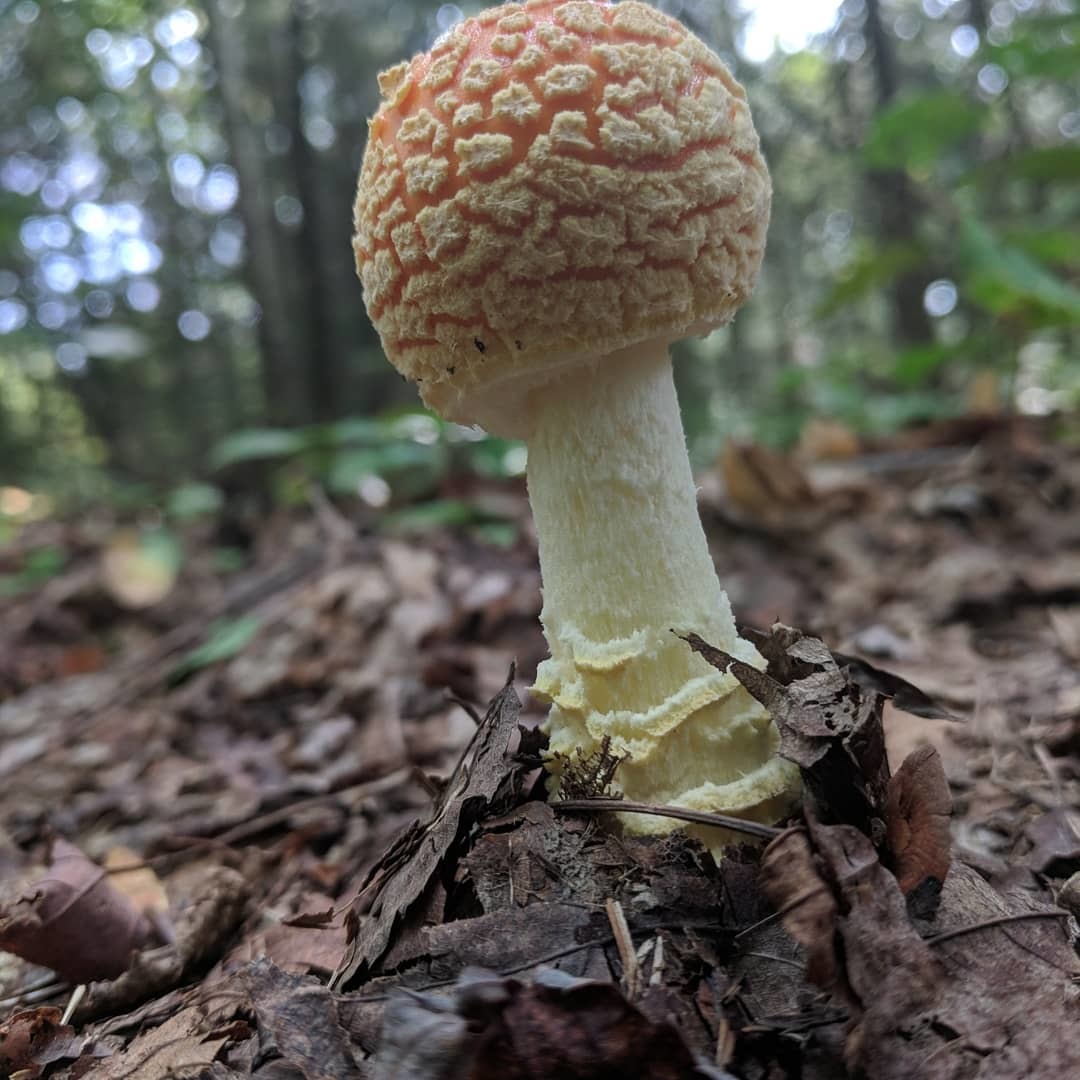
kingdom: Fungi
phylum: Basidiomycota
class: Agaricomycetes
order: Agaricales
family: Amanitaceae
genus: Amanita
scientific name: Amanita muscaria
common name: Fly agaric
